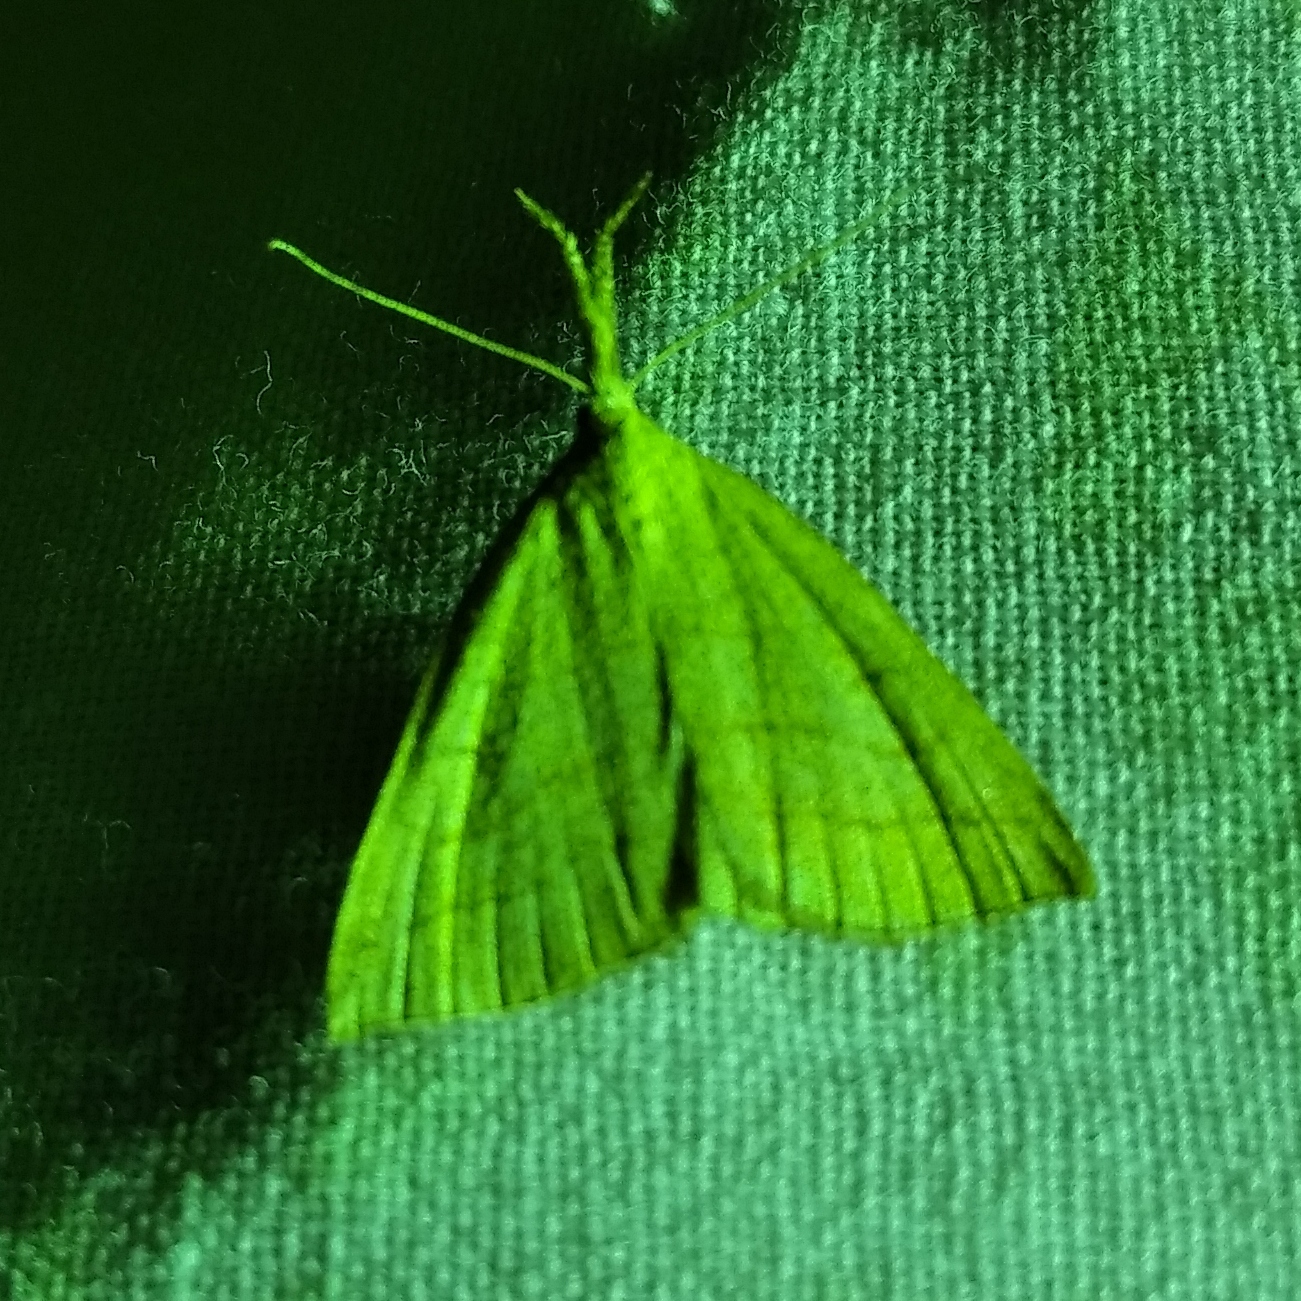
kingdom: Animalia
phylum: Arthropoda
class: Insecta
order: Lepidoptera
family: Erebidae
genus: Polypogon
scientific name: Polypogon tentacularia
